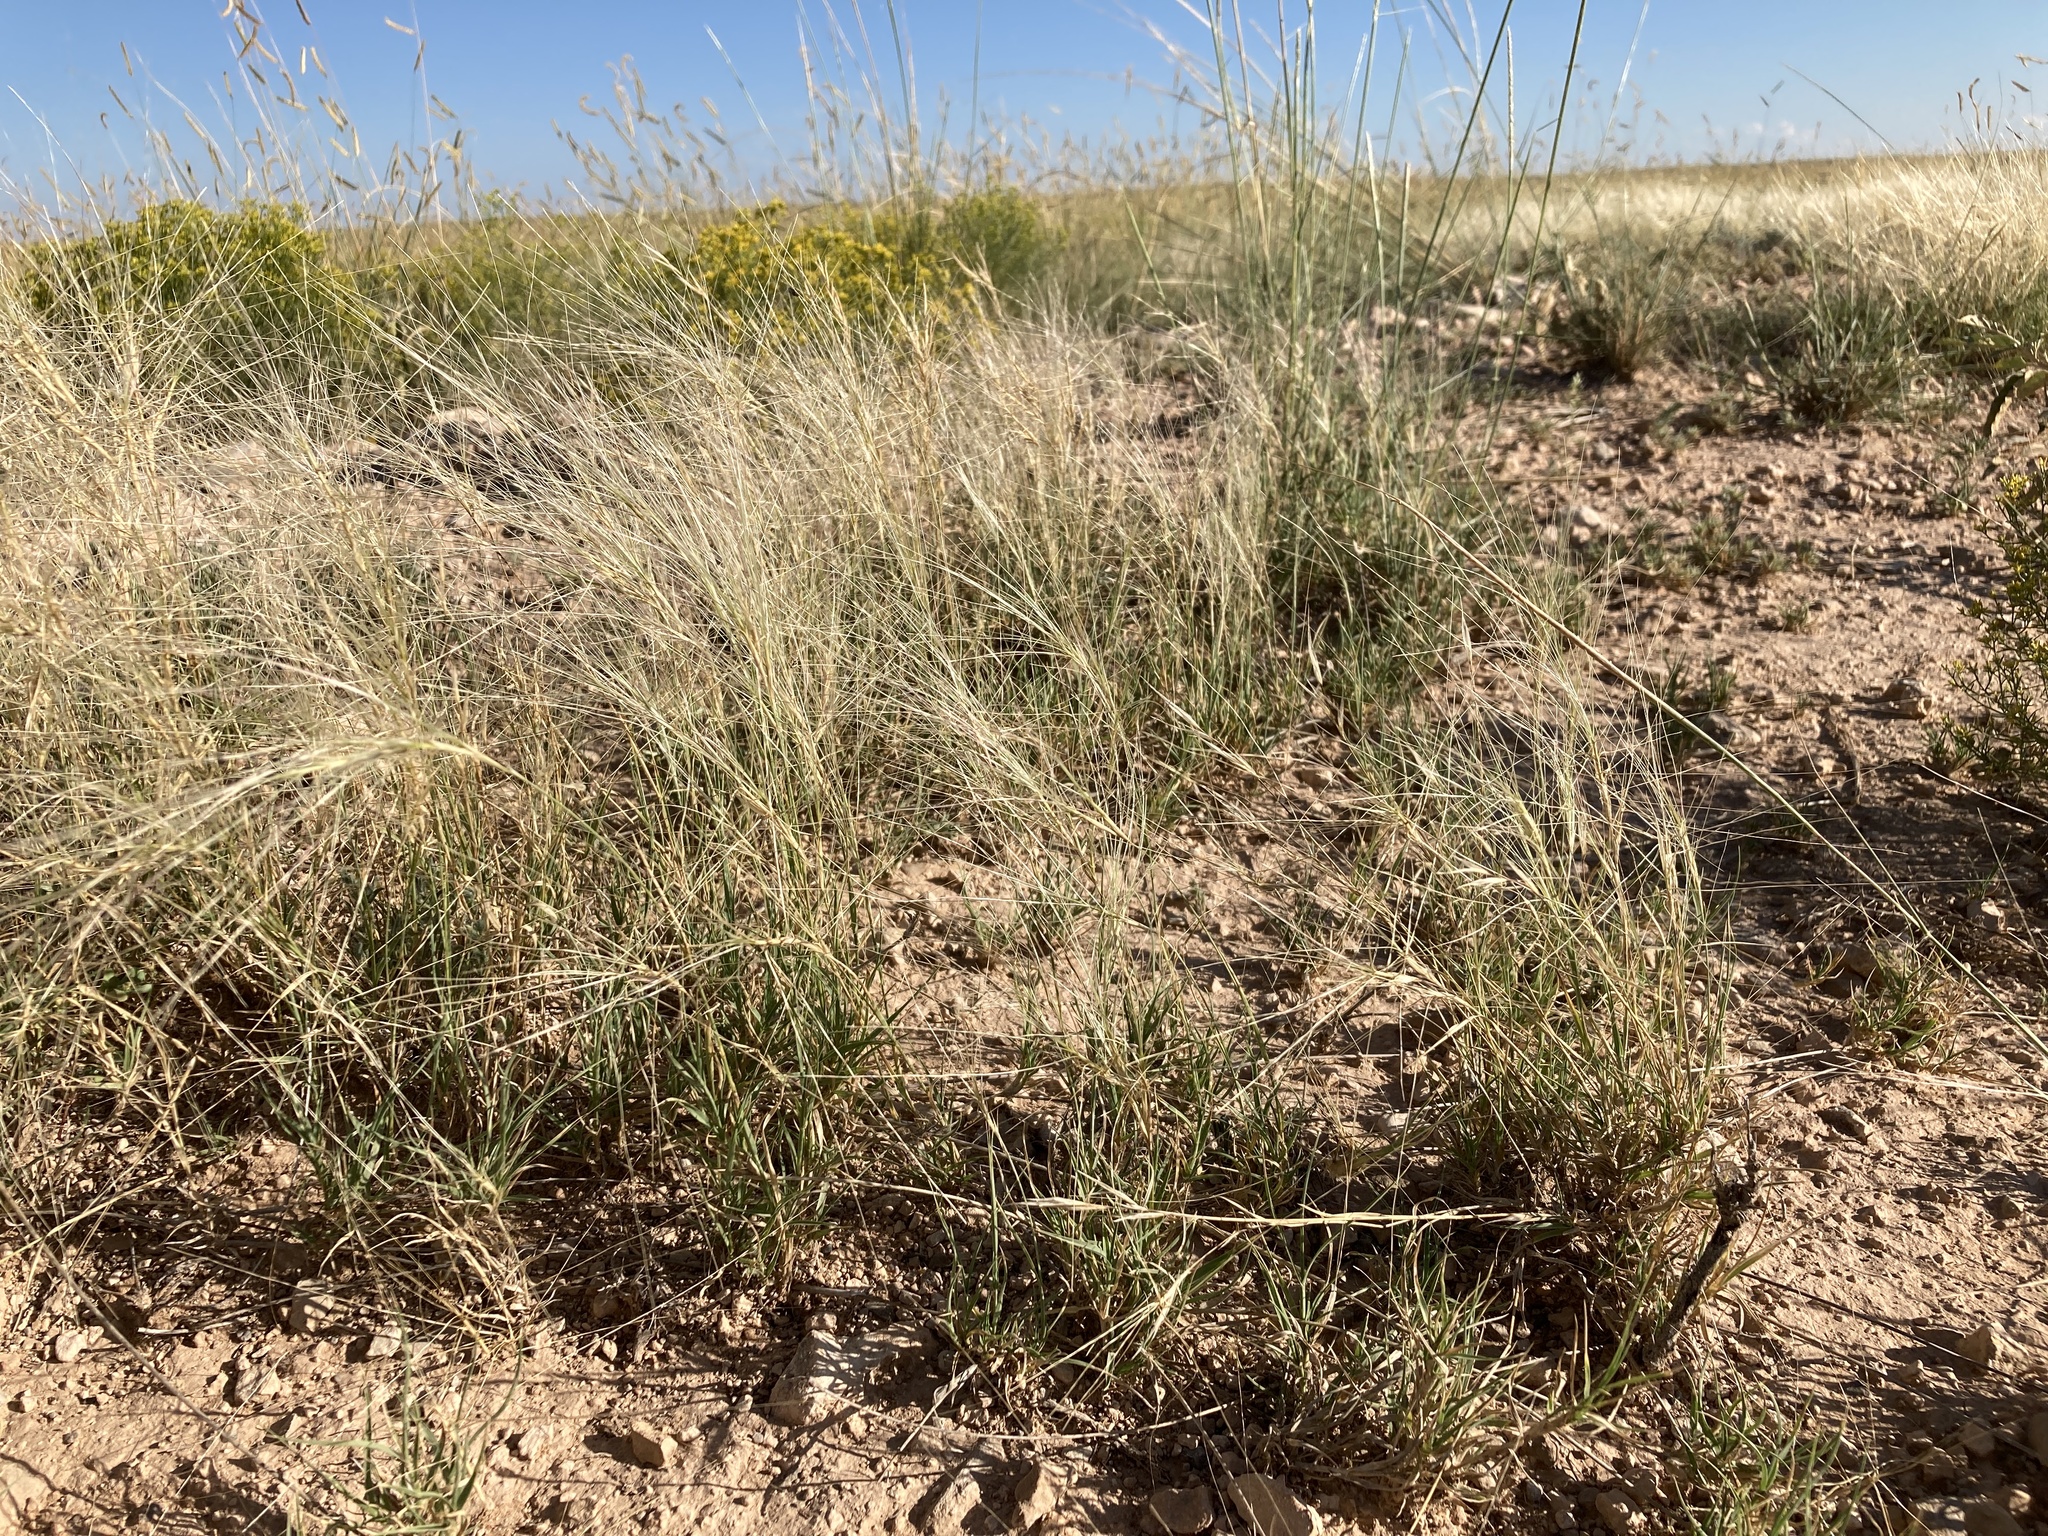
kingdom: Plantae
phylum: Tracheophyta
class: Liliopsida
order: Poales
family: Poaceae
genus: Scleropogon
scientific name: Scleropogon brevifolius
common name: Burro grass
